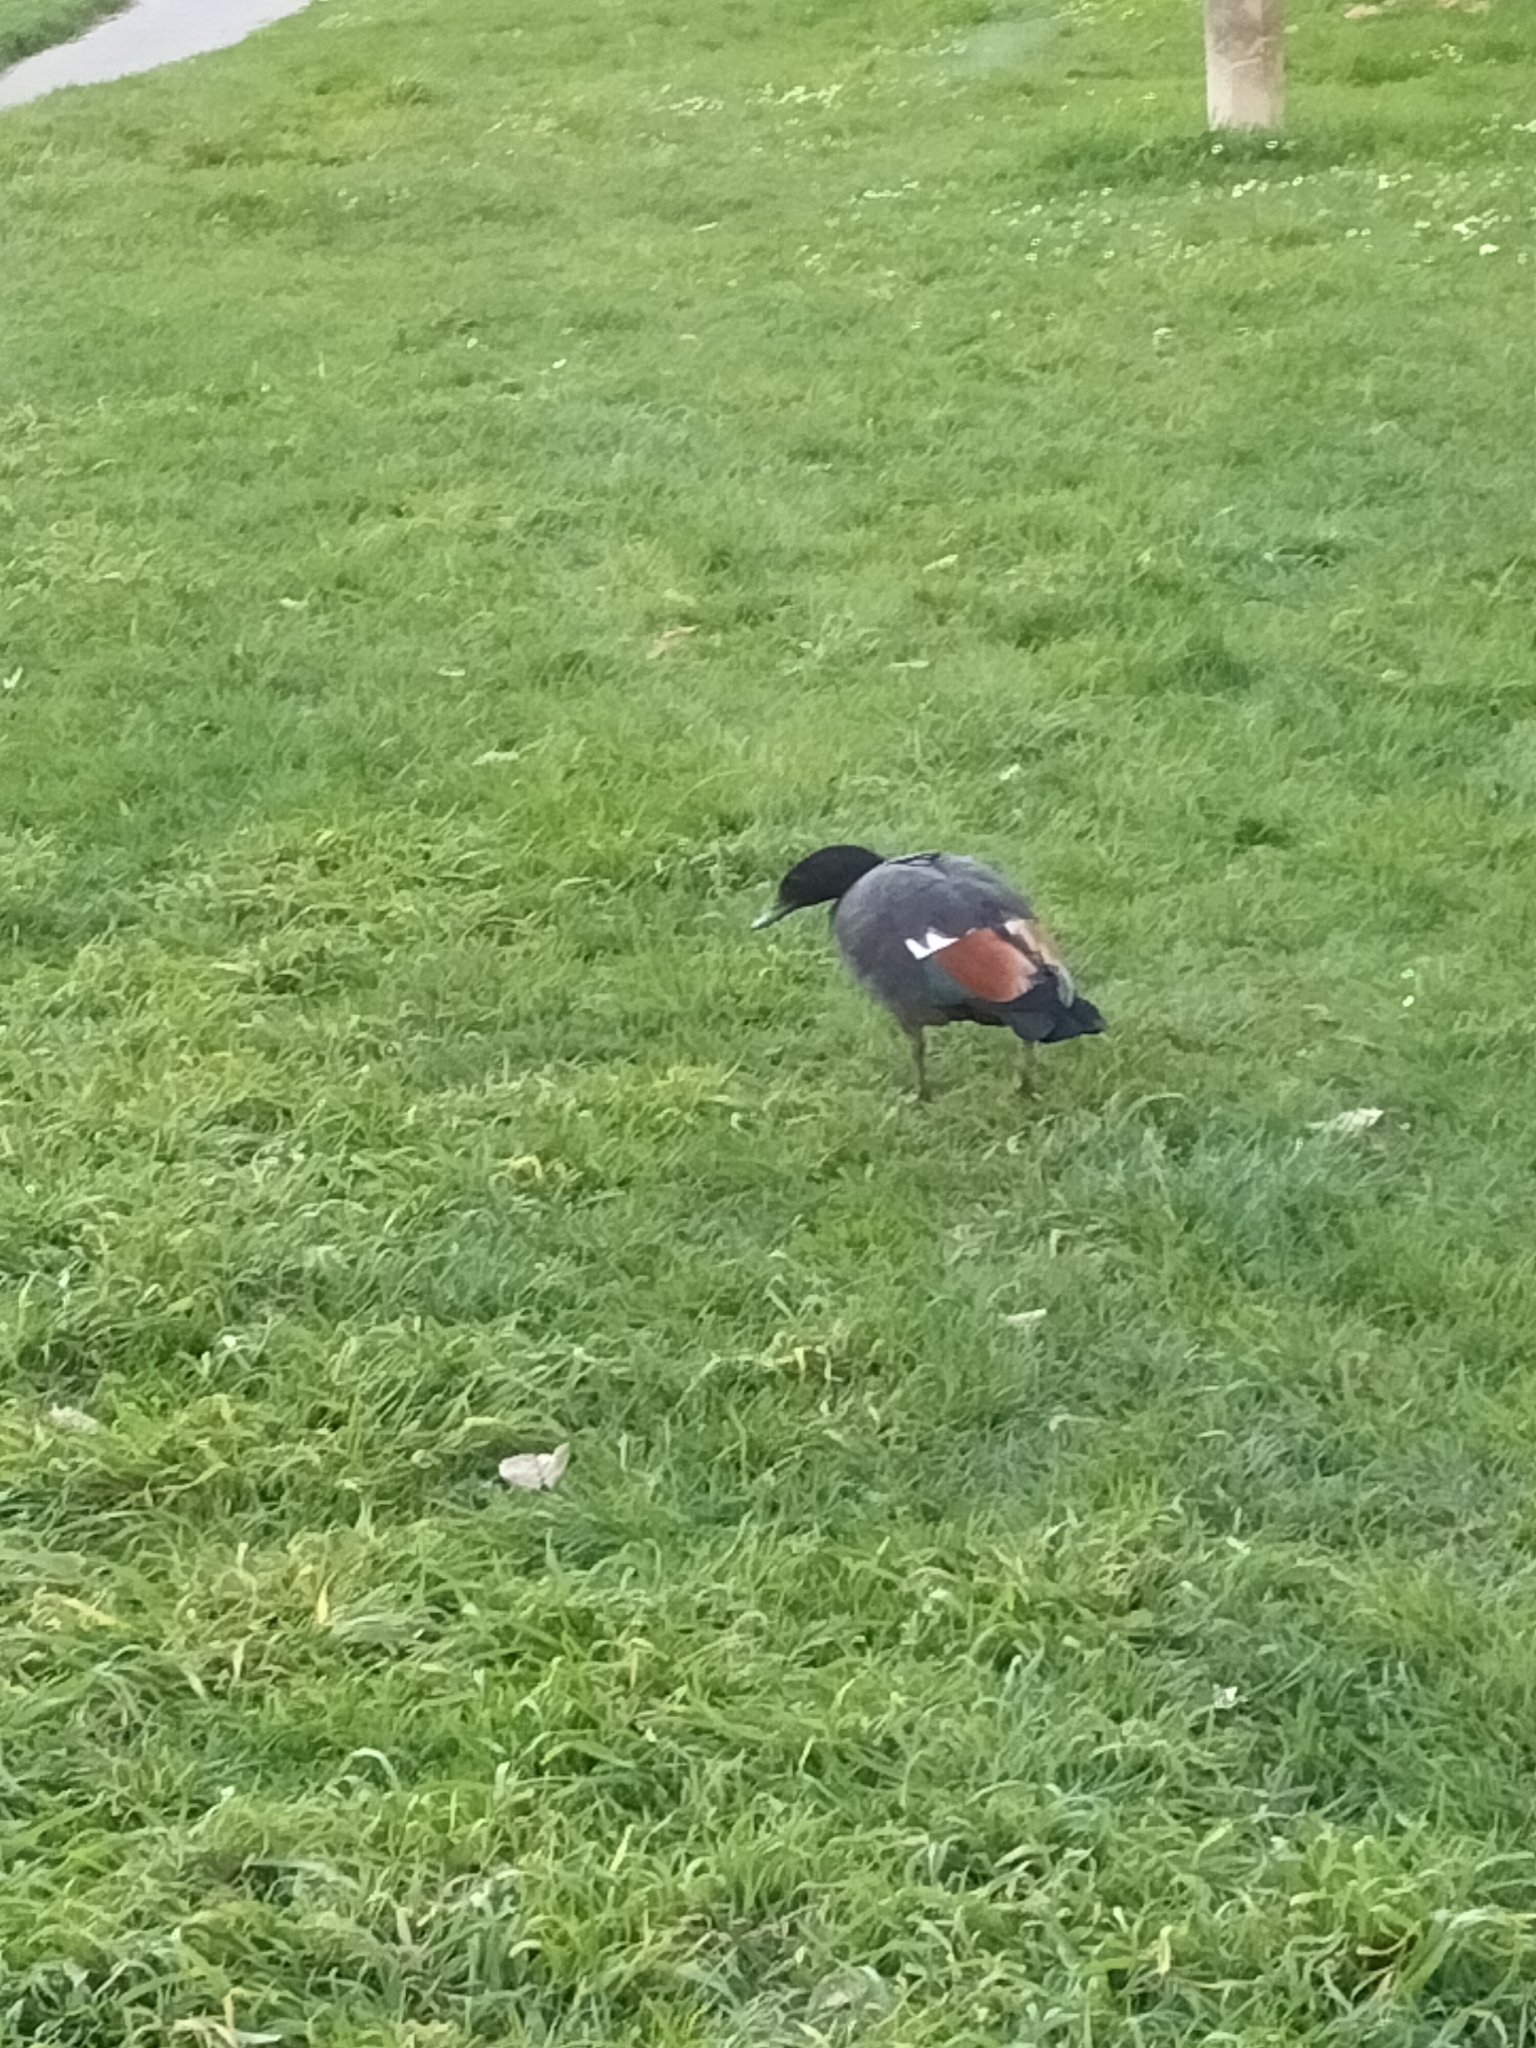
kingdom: Animalia
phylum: Chordata
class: Aves
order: Anseriformes
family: Anatidae
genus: Tadorna
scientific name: Tadorna variegata
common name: Paradise shelduck
